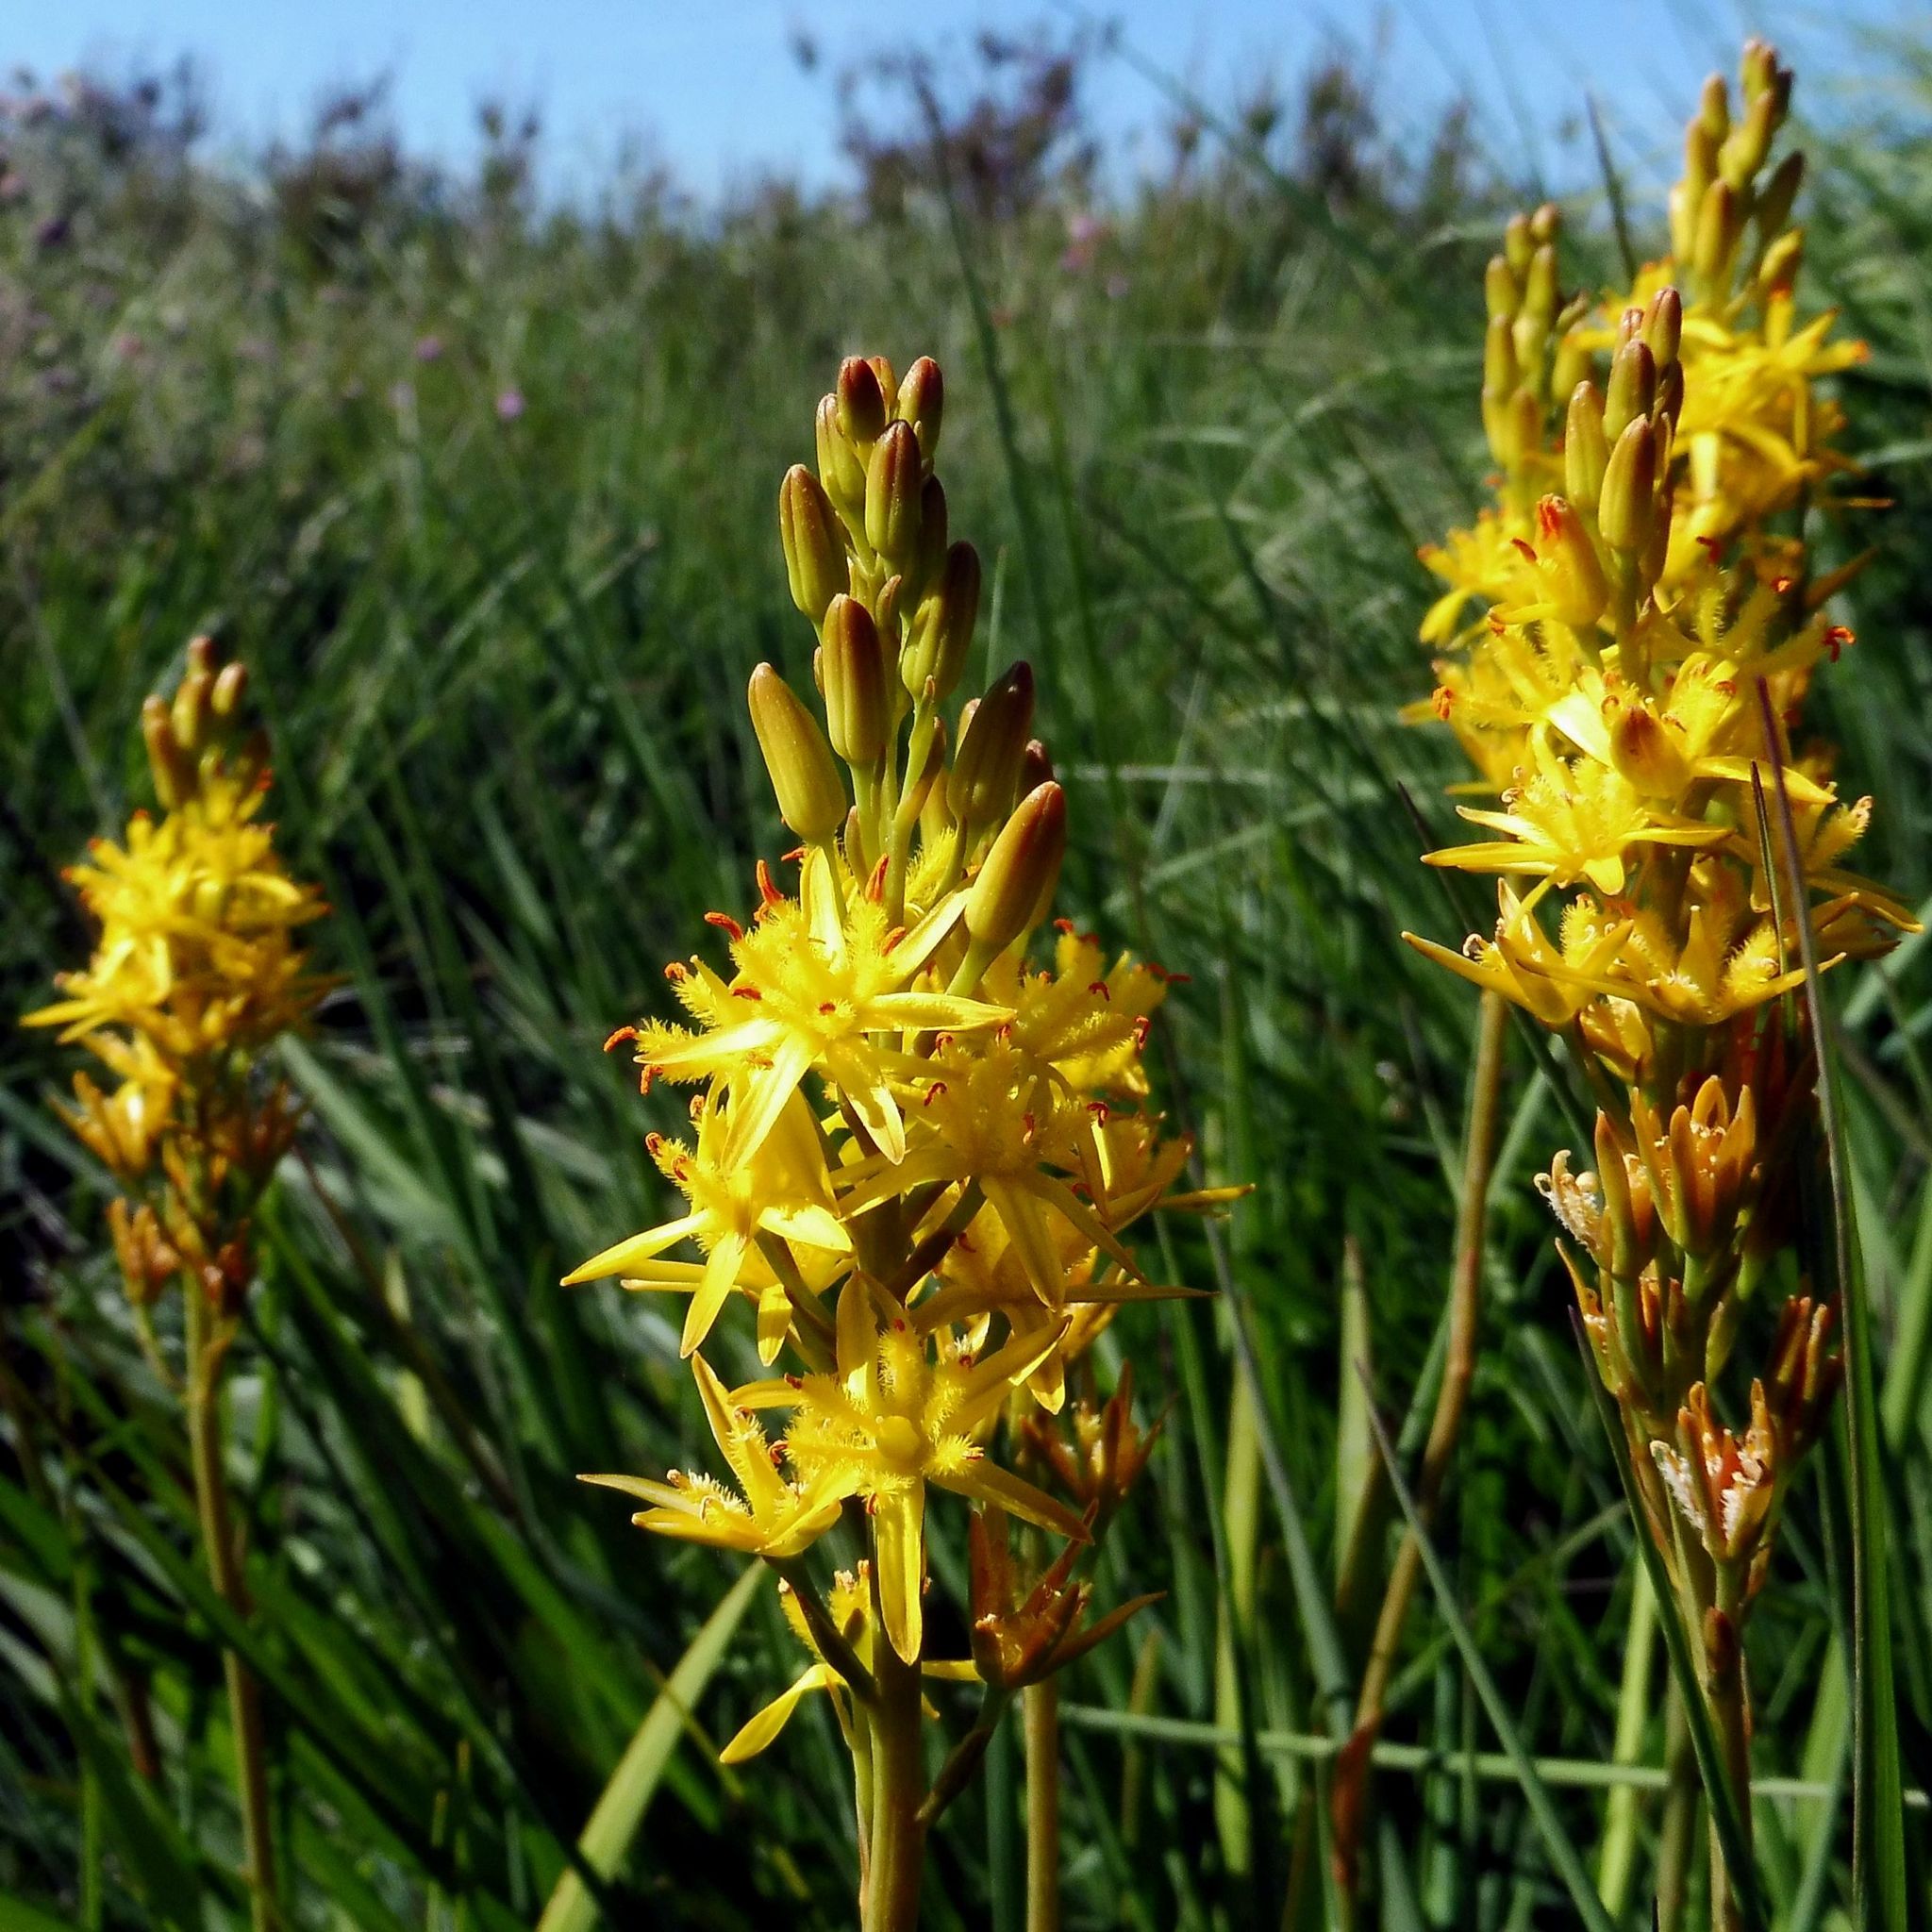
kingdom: Plantae
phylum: Tracheophyta
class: Liliopsida
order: Dioscoreales
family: Nartheciaceae
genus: Narthecium
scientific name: Narthecium ossifragum
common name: Bog asphodel
